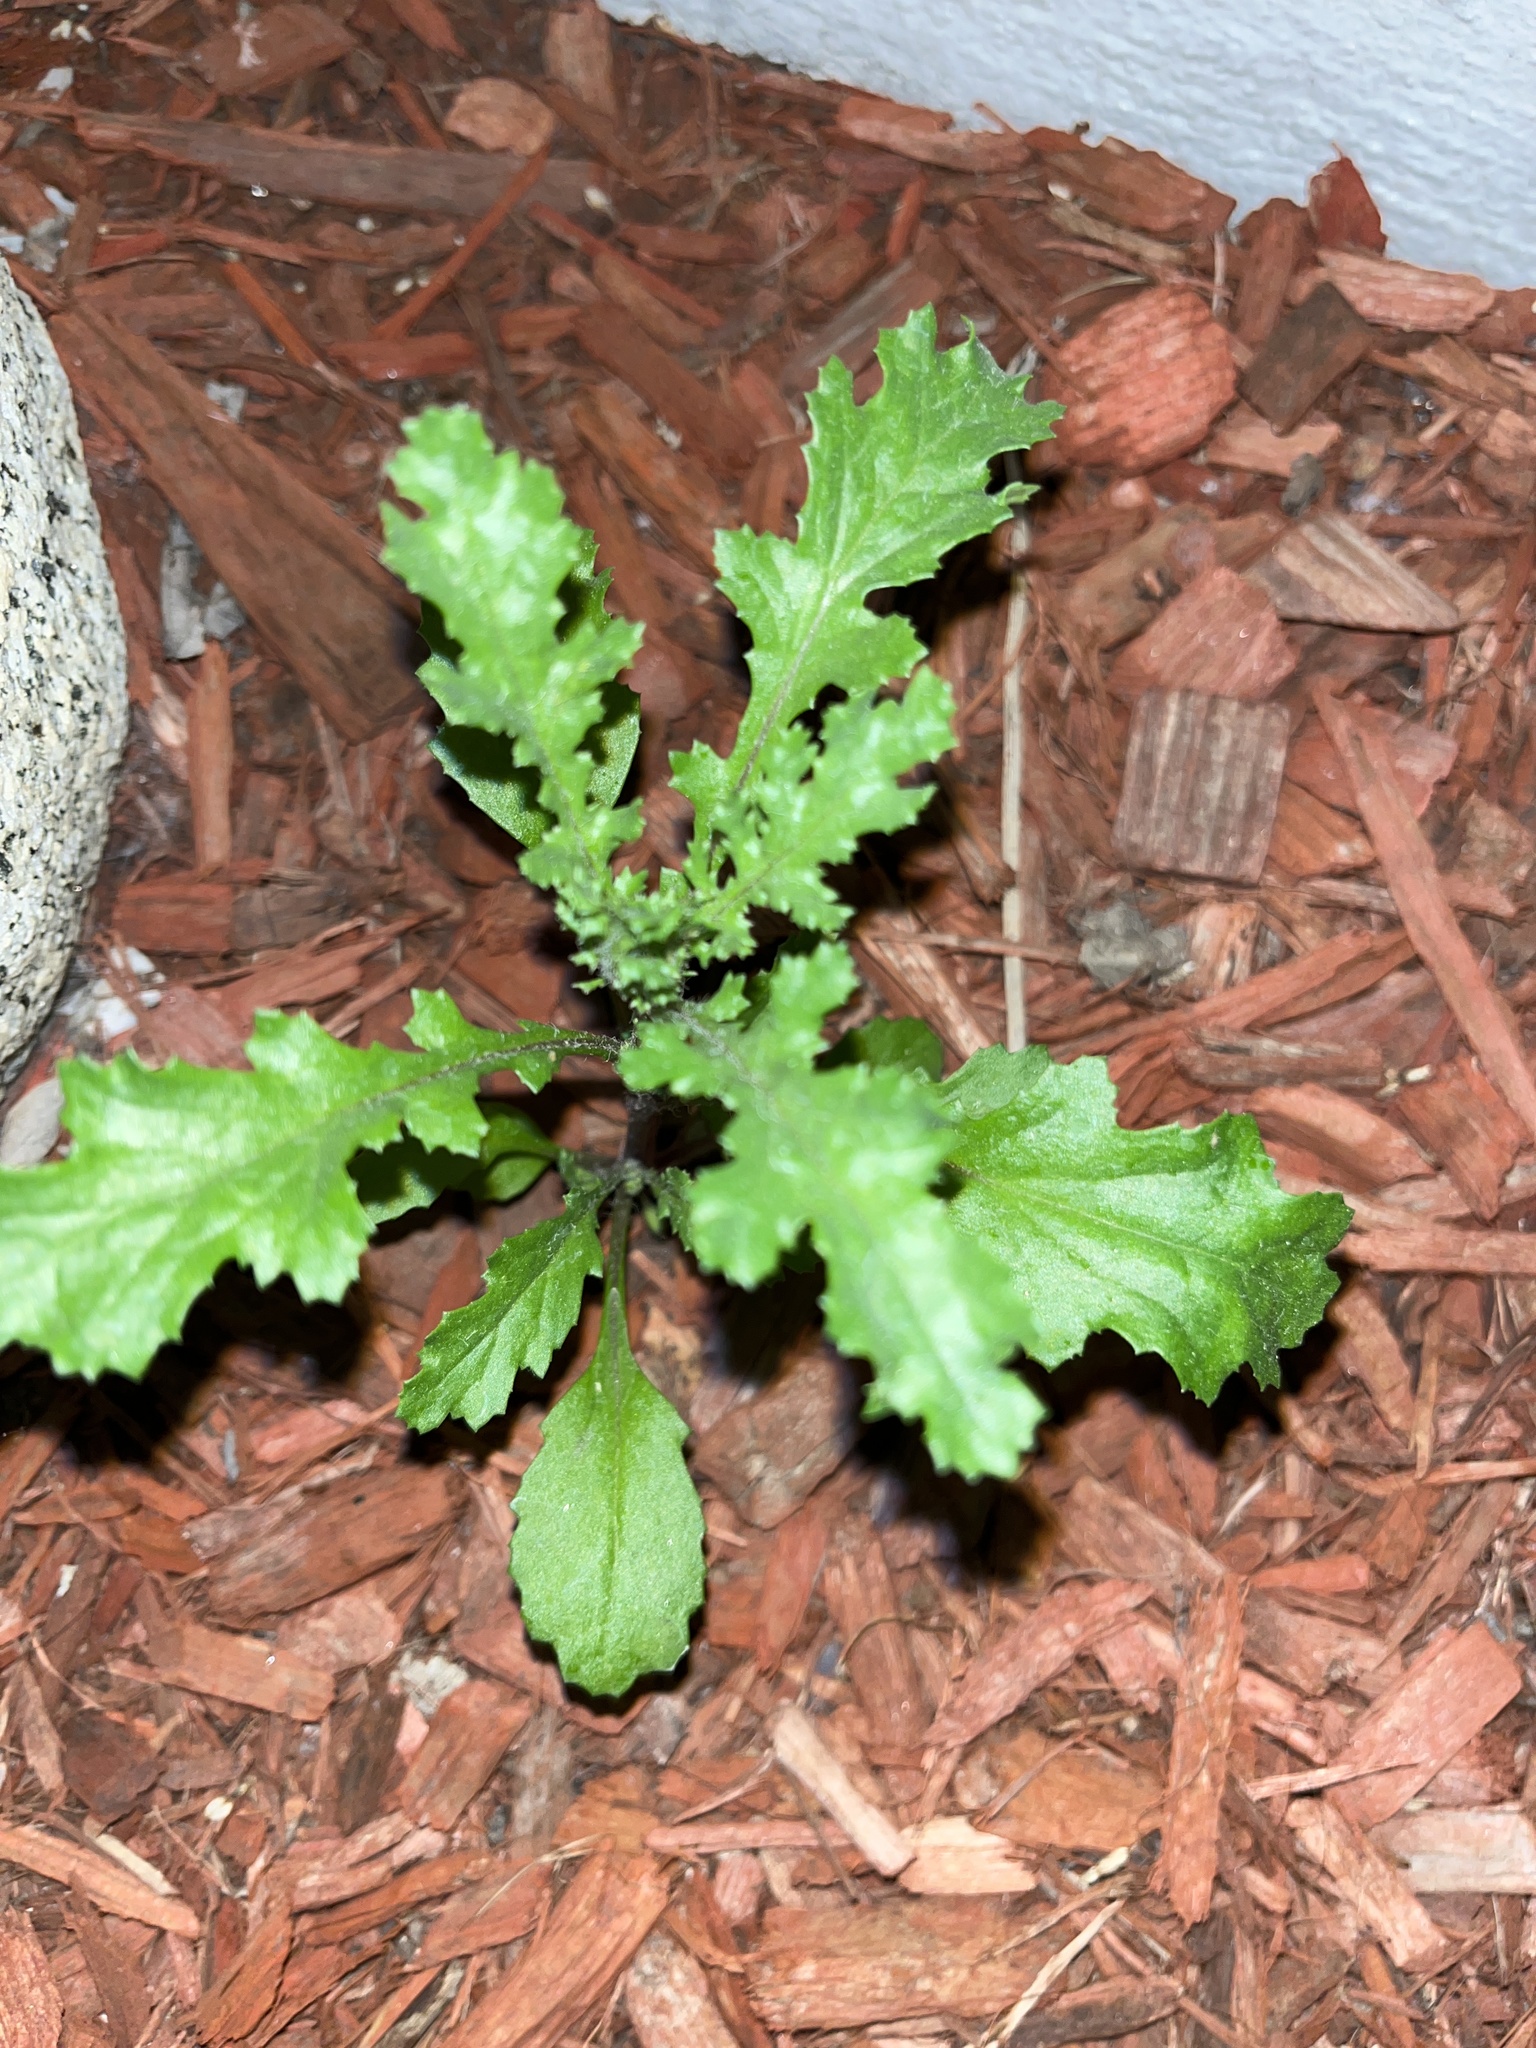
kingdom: Plantae
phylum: Tracheophyta
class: Magnoliopsida
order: Asterales
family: Asteraceae
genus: Senecio
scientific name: Senecio vulgaris
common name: Old-man-in-the-spring
